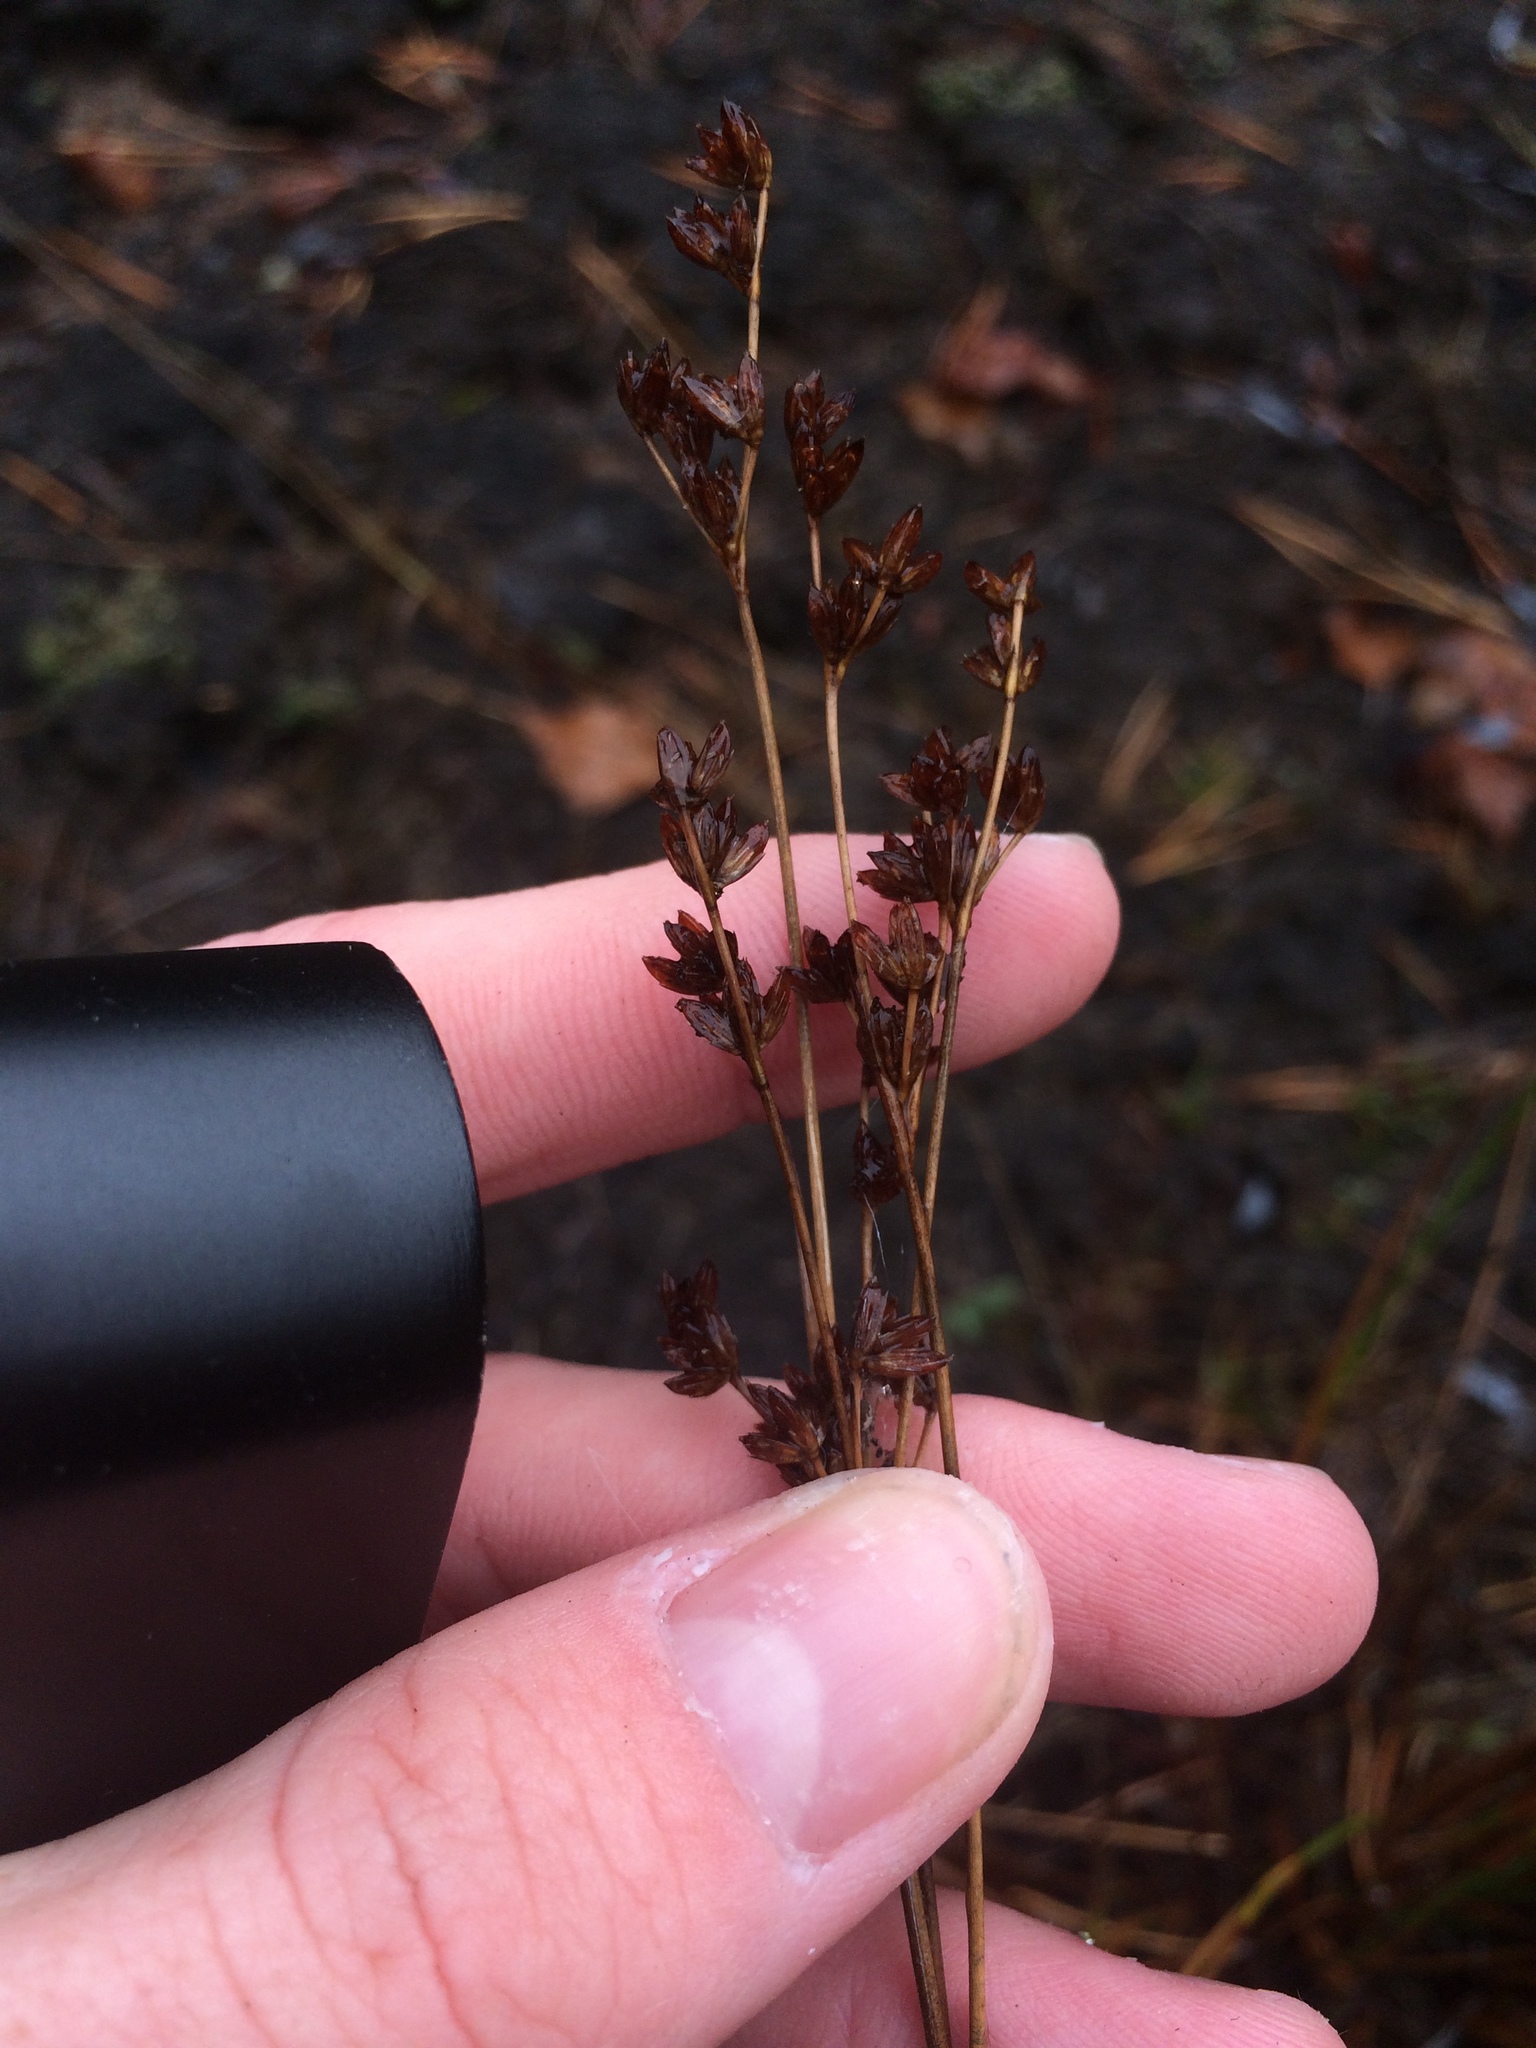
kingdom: Plantae
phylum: Tracheophyta
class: Liliopsida
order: Poales
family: Juncaceae
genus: Juncus
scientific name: Juncus tweedyi
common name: Narrow-panicled rush
